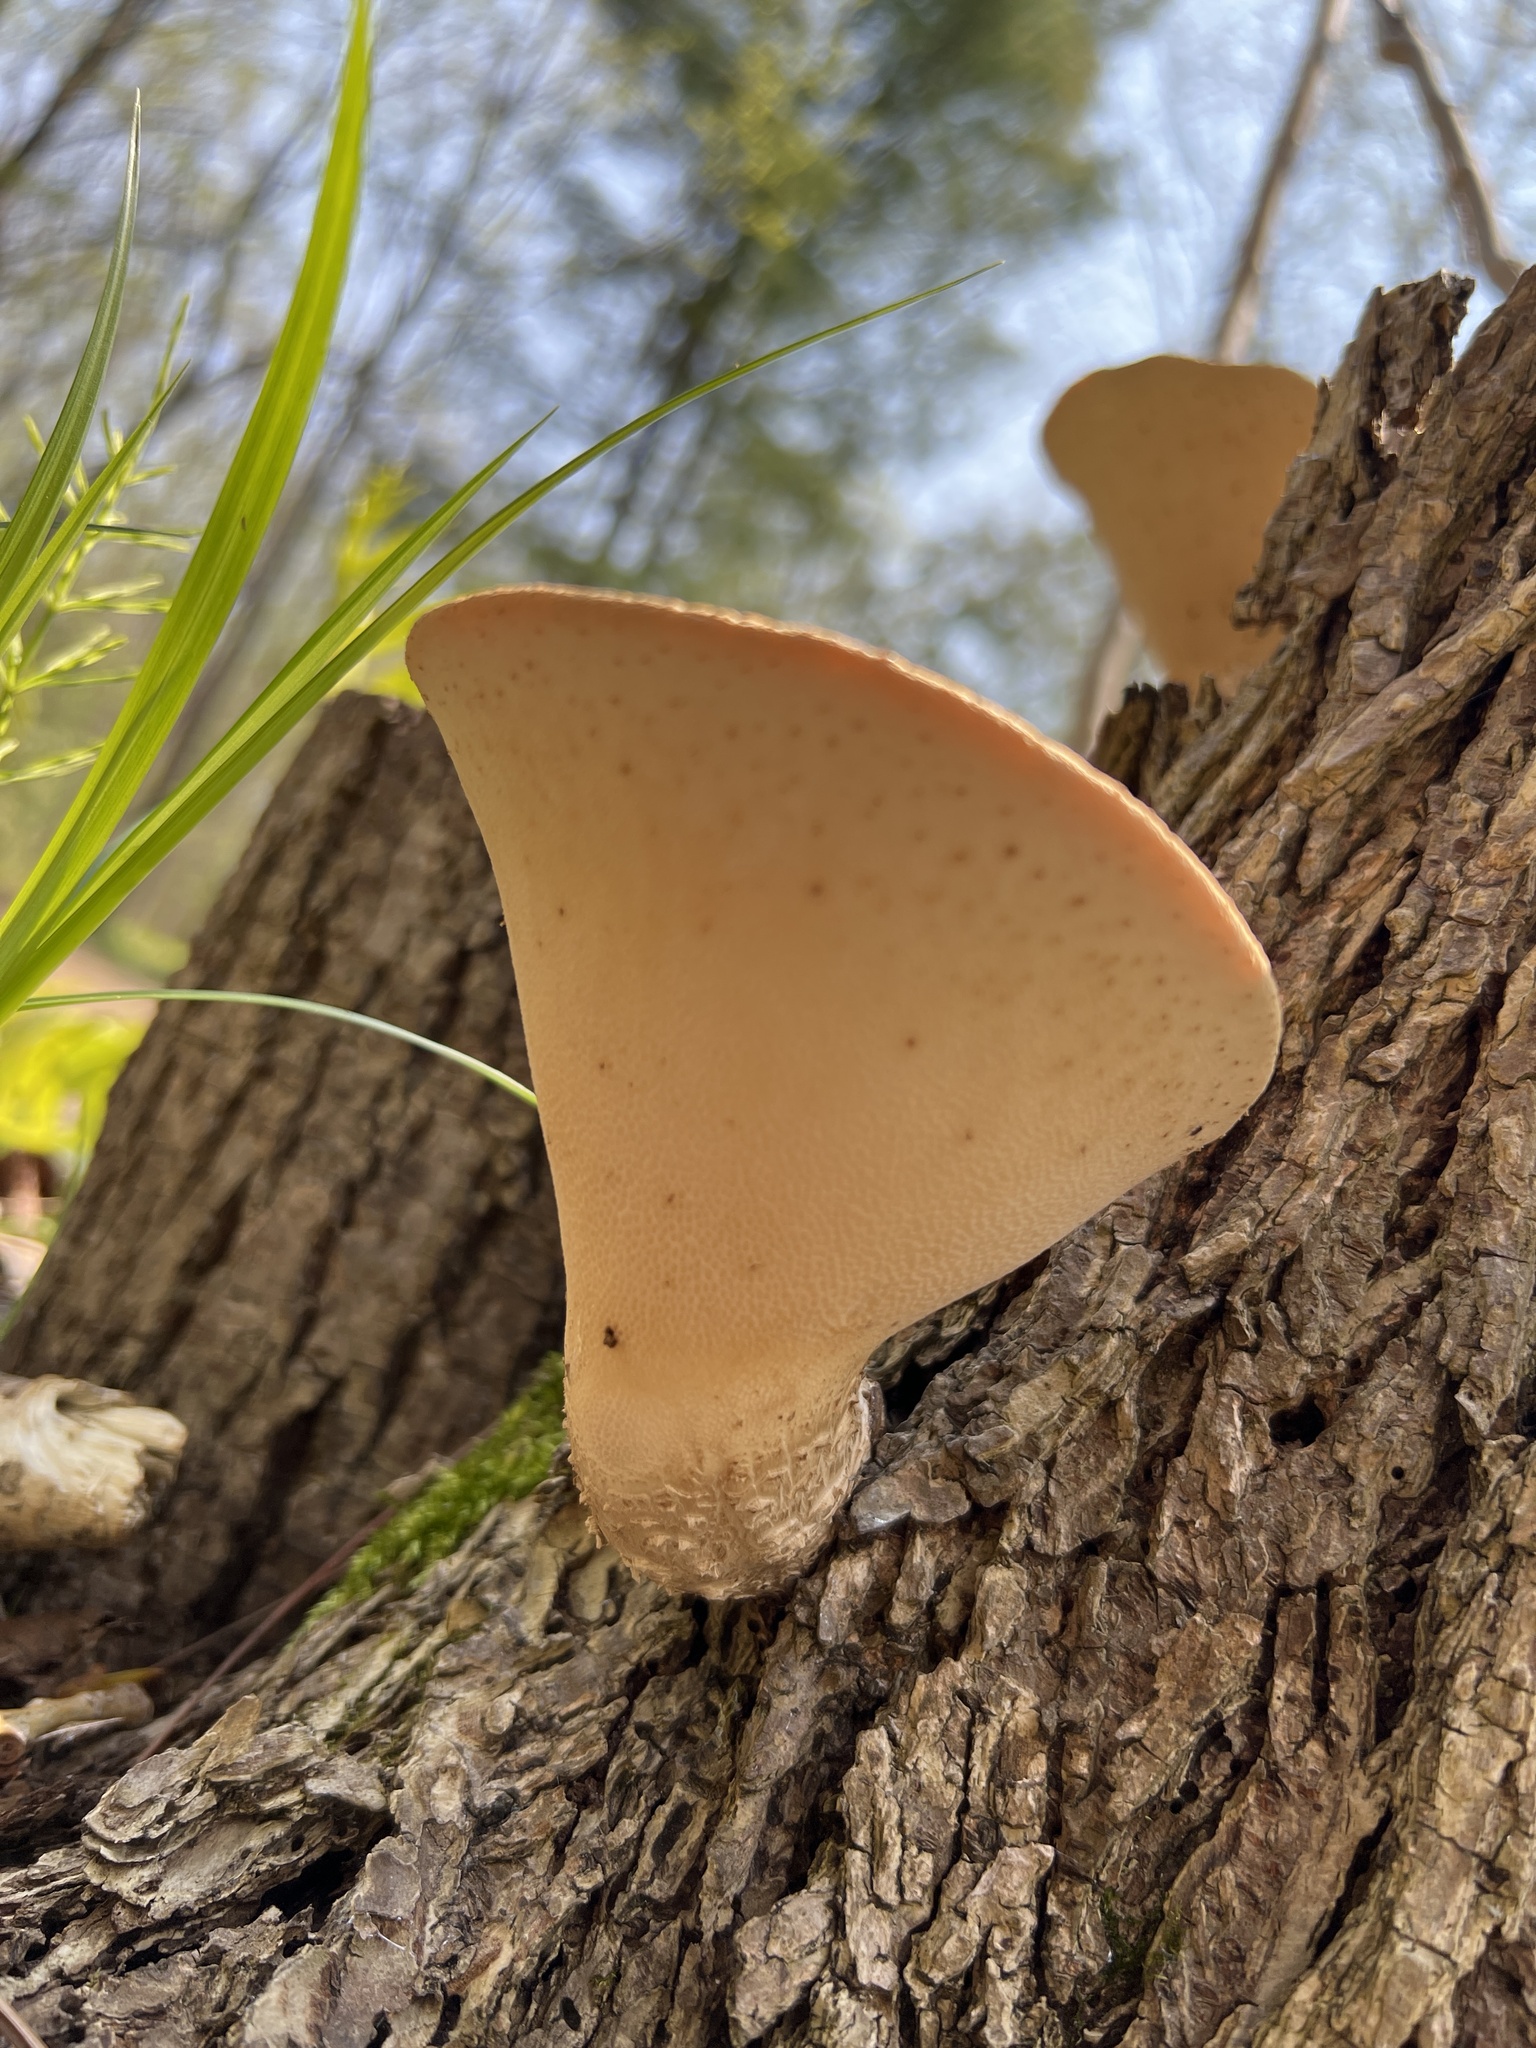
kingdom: Fungi
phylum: Basidiomycota
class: Agaricomycetes
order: Polyporales
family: Polyporaceae
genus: Cerioporus
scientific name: Cerioporus squamosus
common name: Dryad's saddle
